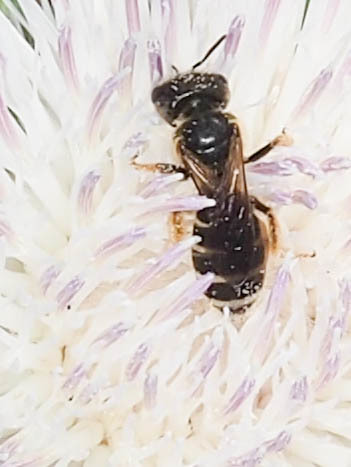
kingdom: Animalia
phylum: Arthropoda
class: Insecta
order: Hymenoptera
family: Halictidae
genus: Halictus
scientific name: Halictus poeyi
